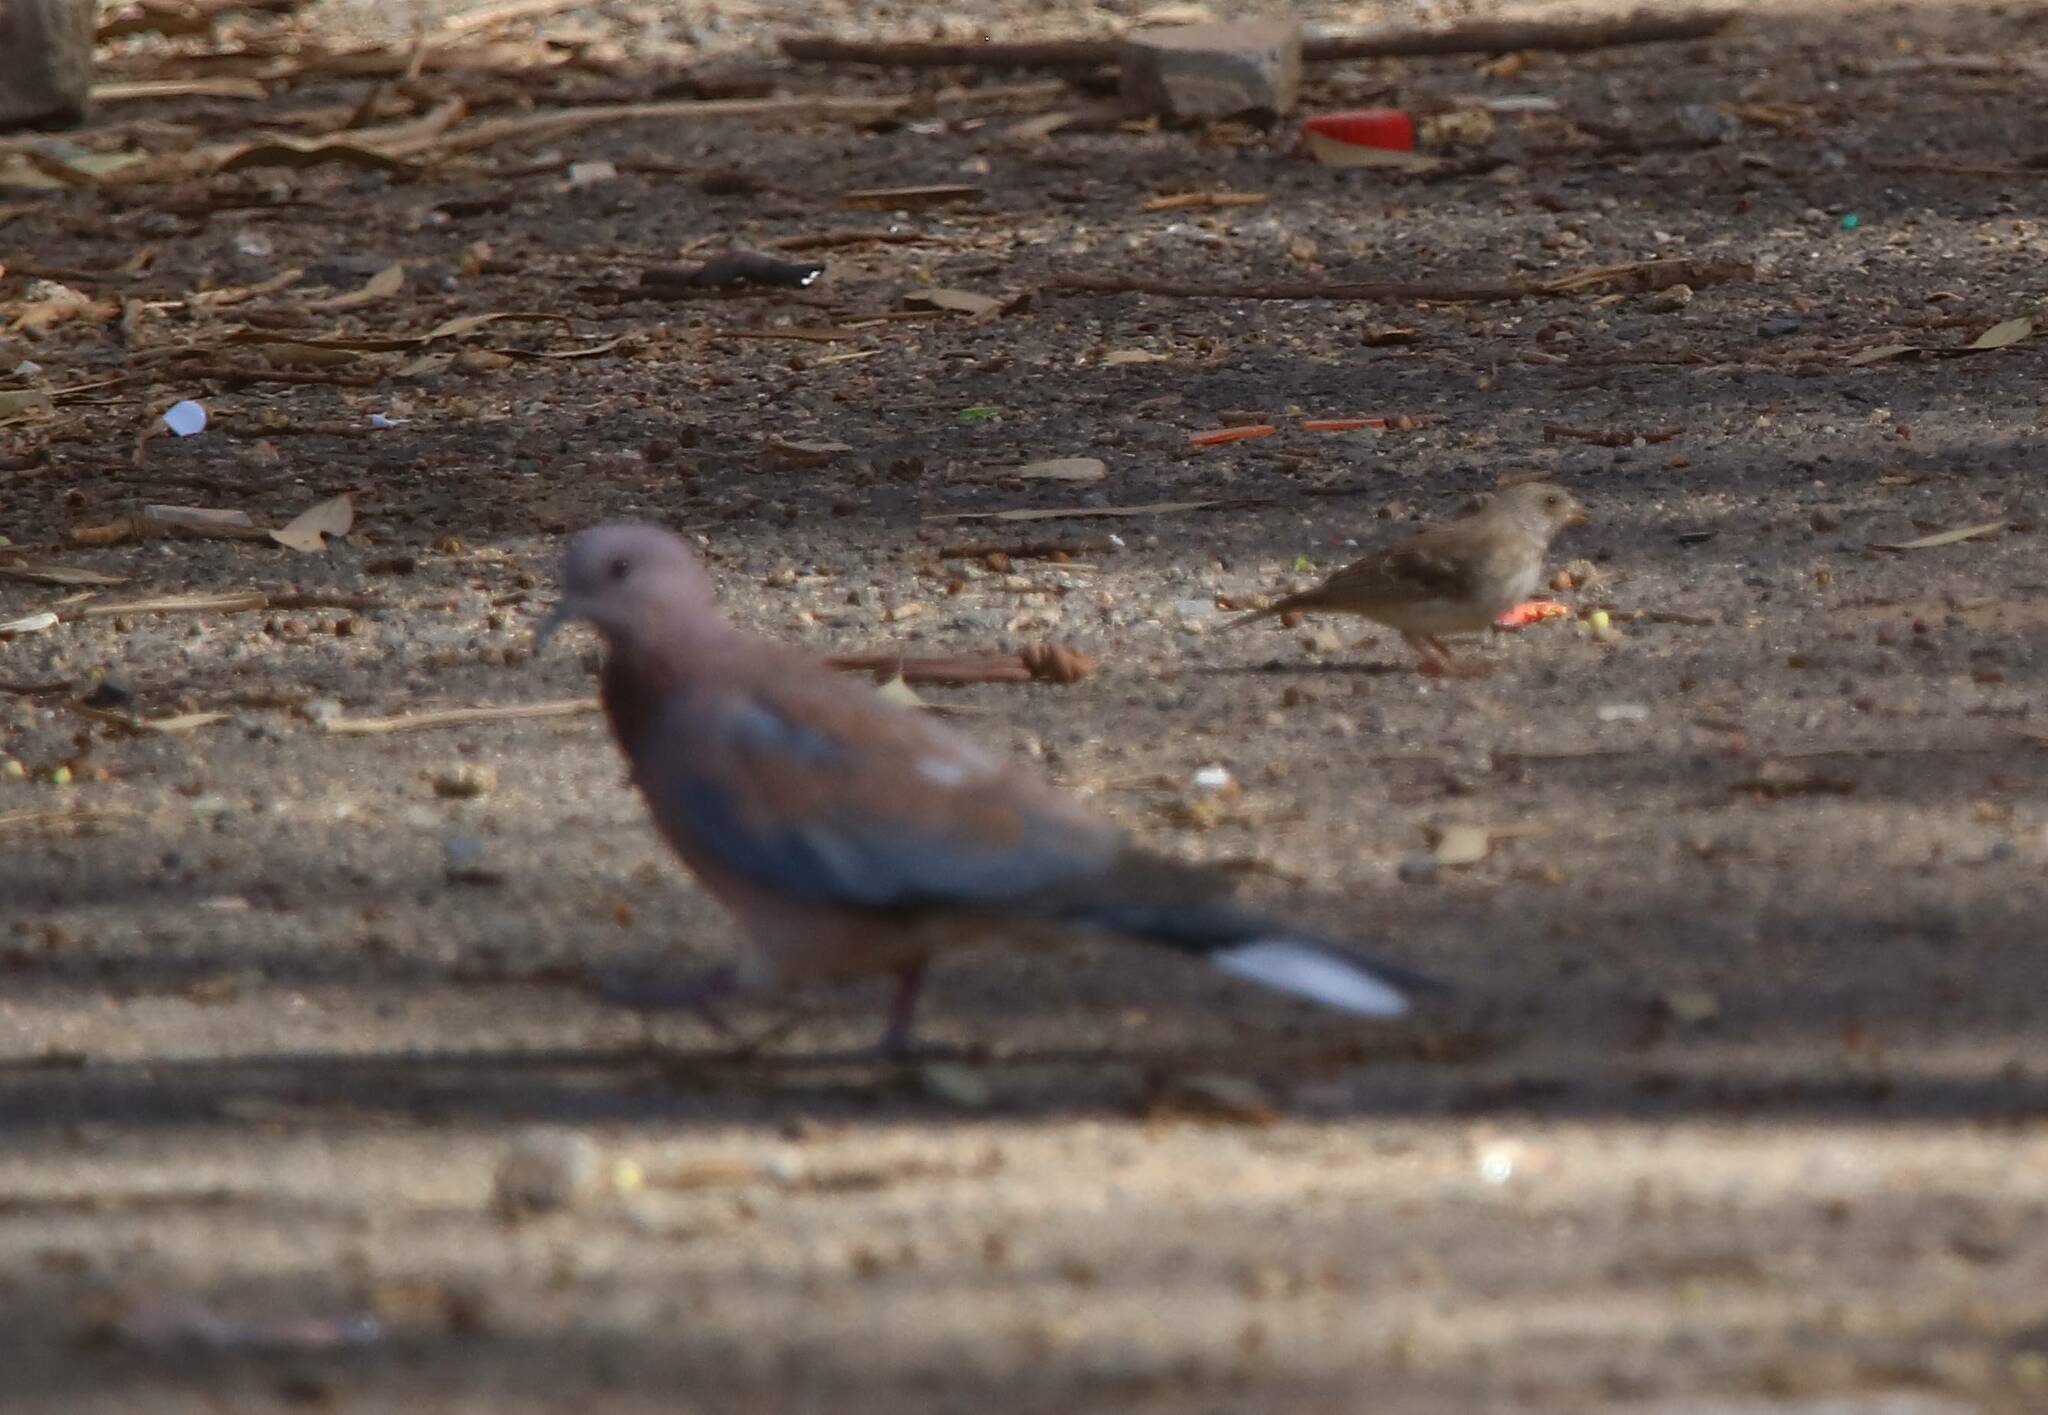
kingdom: Animalia
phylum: Chordata
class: Aves
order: Columbiformes
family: Columbidae
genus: Spilopelia
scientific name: Spilopelia senegalensis
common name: Laughing dove
